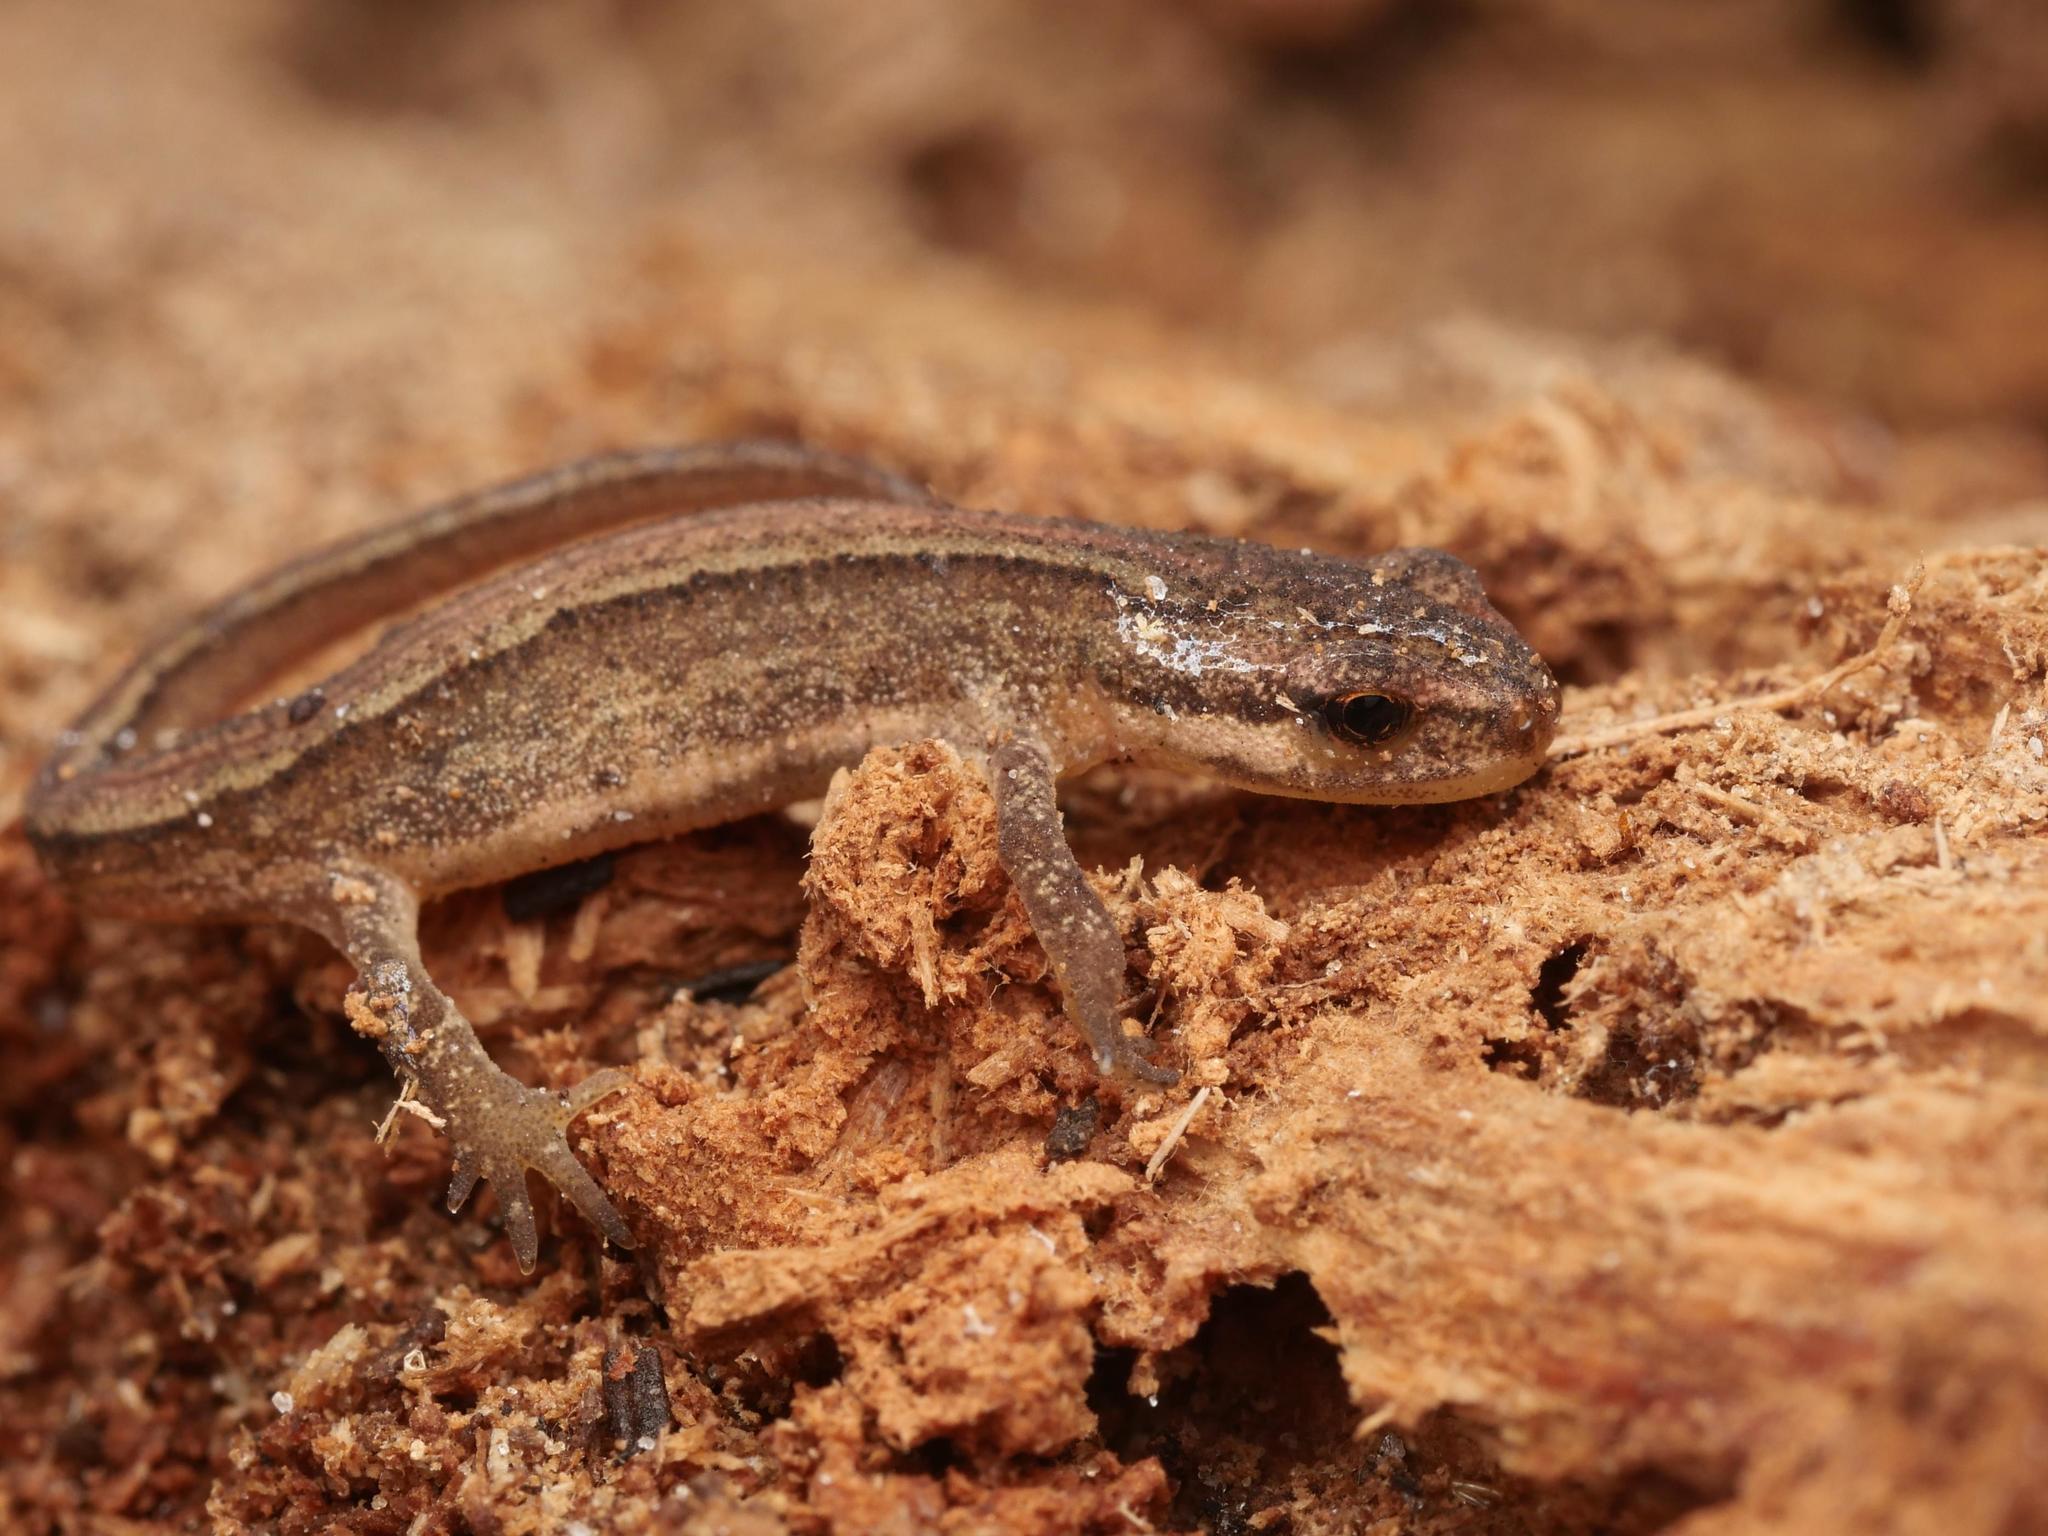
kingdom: Animalia
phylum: Chordata
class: Amphibia
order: Caudata
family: Salamandridae
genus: Lissotriton
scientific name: Lissotriton vulgaris
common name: Smooth newt
